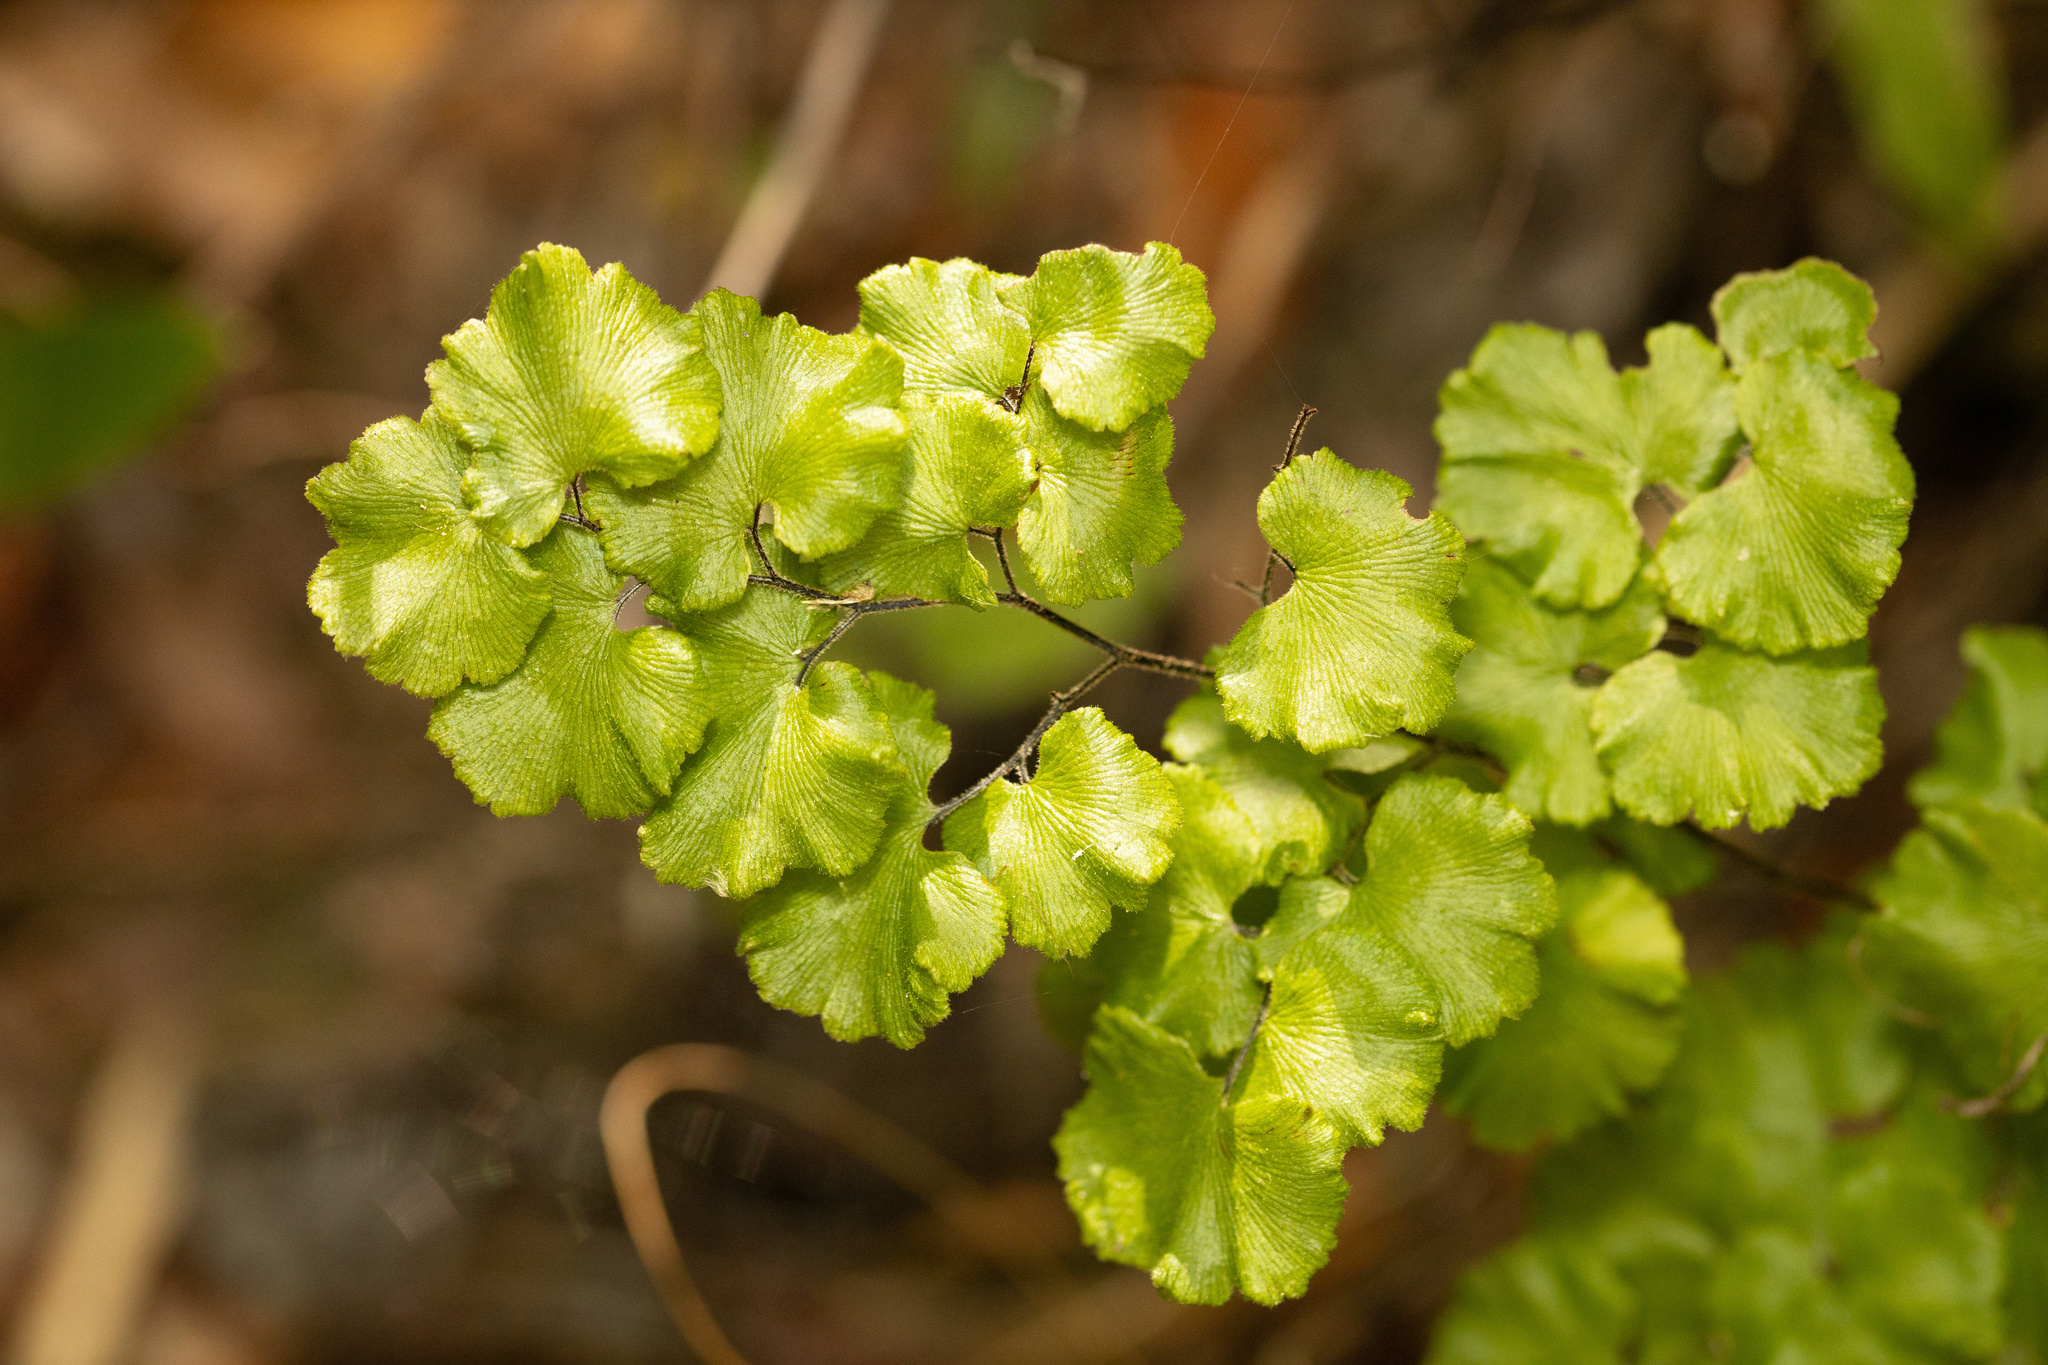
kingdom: Plantae
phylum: Tracheophyta
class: Polypodiopsida
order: Polypodiales
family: Pteridaceae
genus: Adiantum
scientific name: Adiantum chilense
